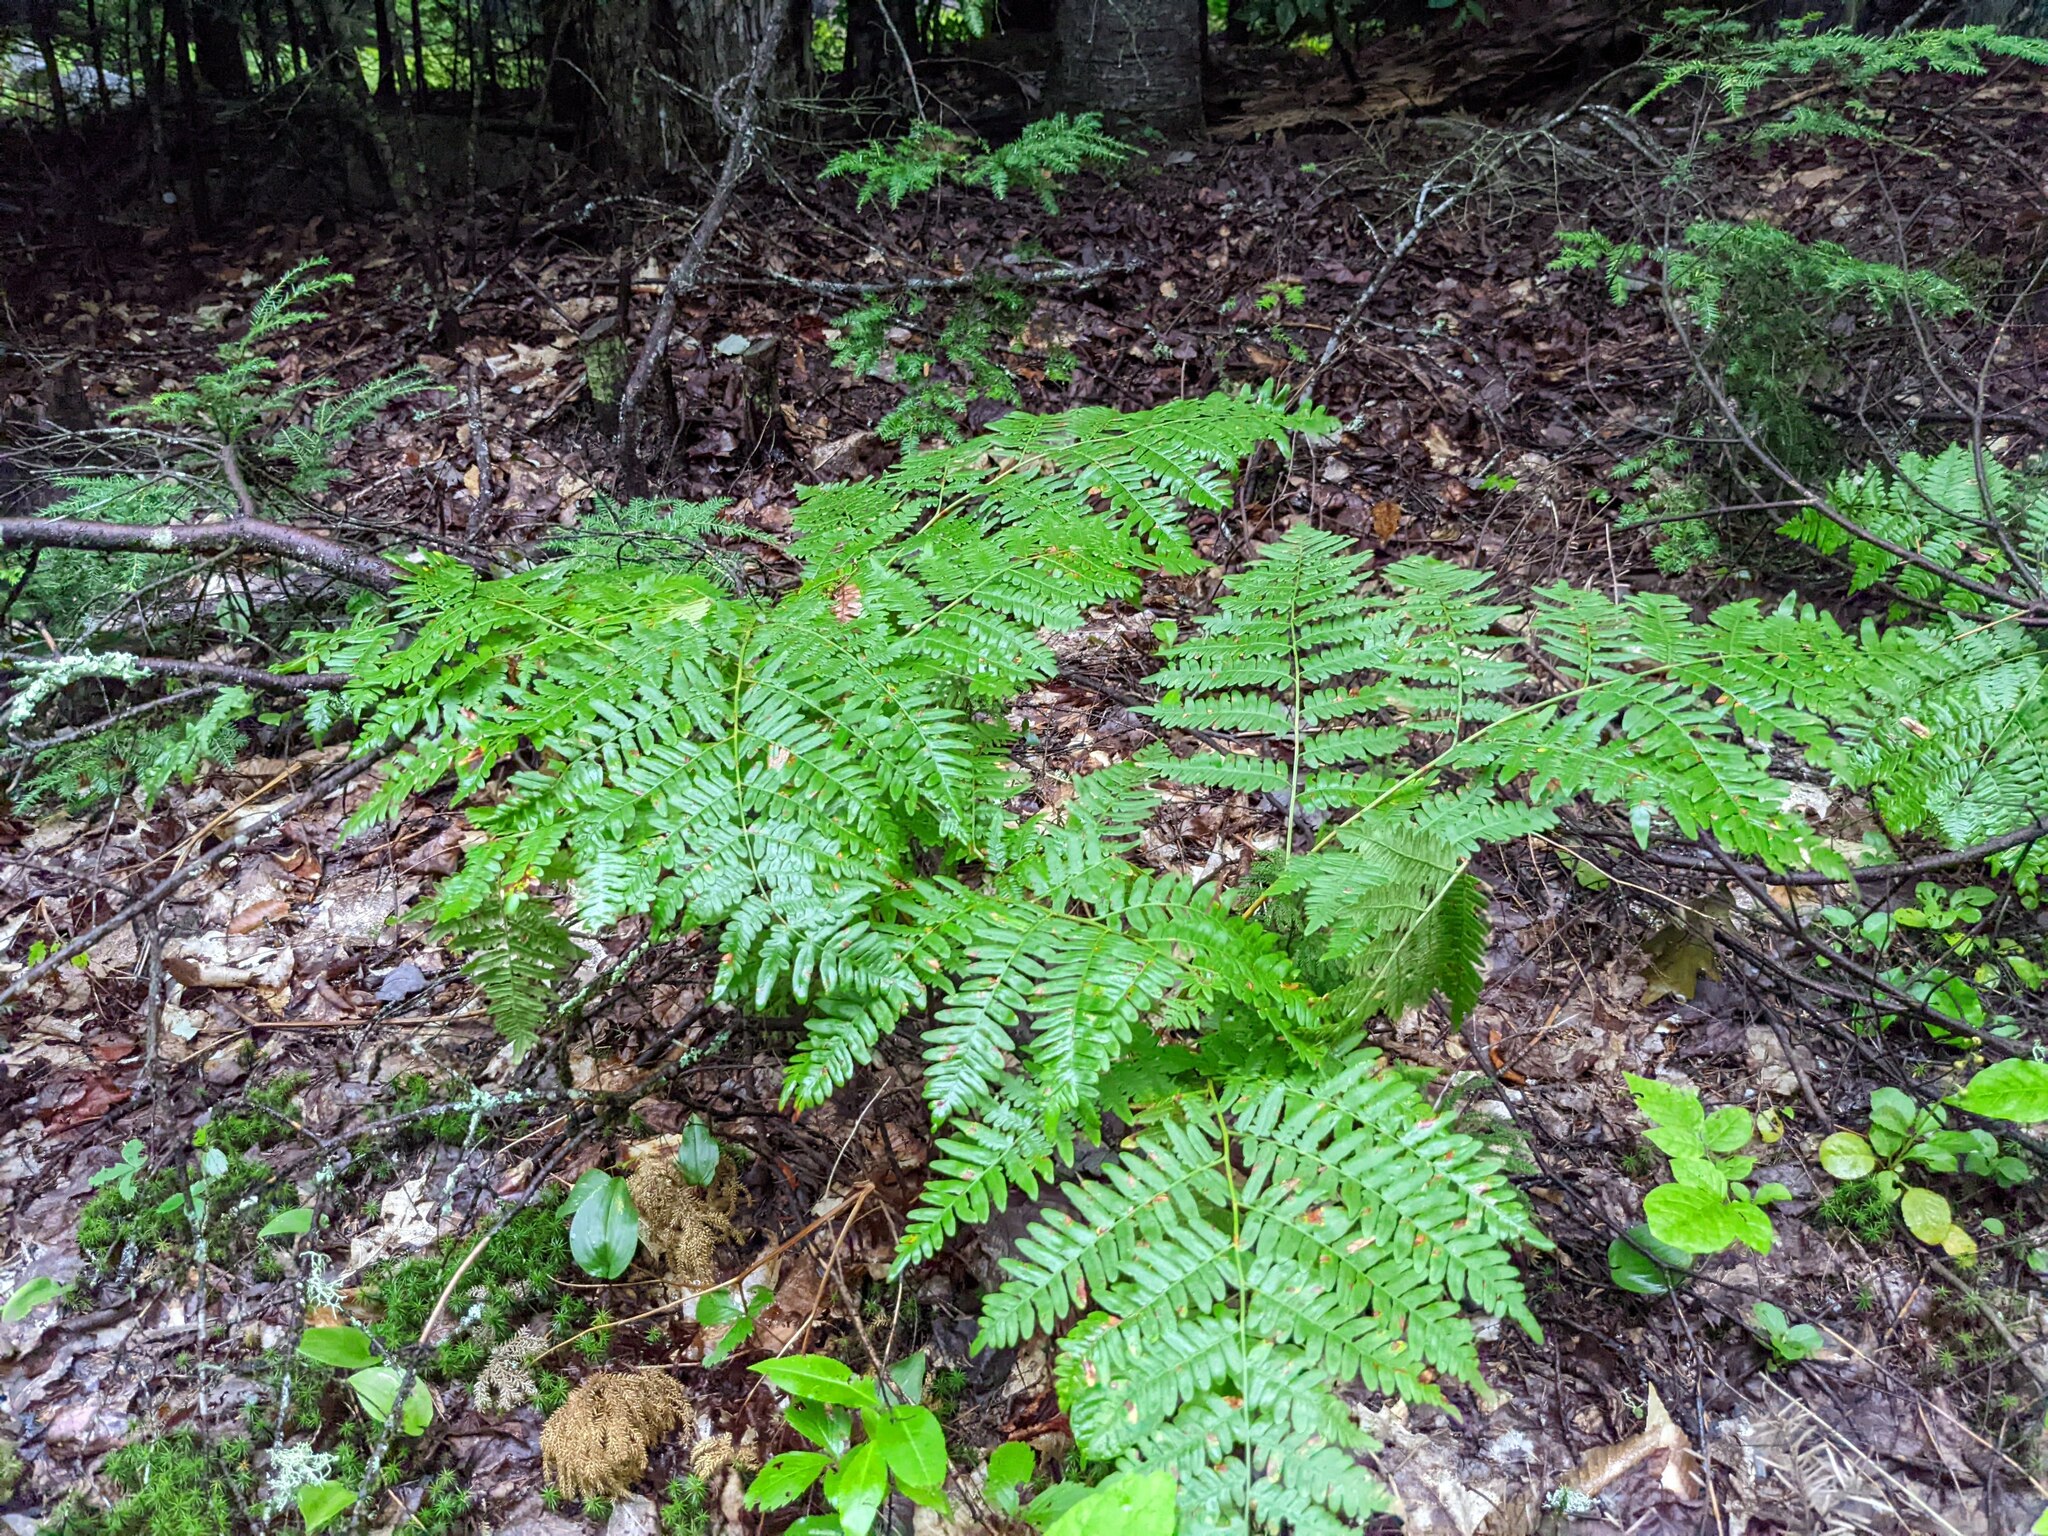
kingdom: Plantae
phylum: Tracheophyta
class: Polypodiopsida
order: Polypodiales
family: Dennstaedtiaceae
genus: Pteridium
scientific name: Pteridium aquilinum
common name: Bracken
